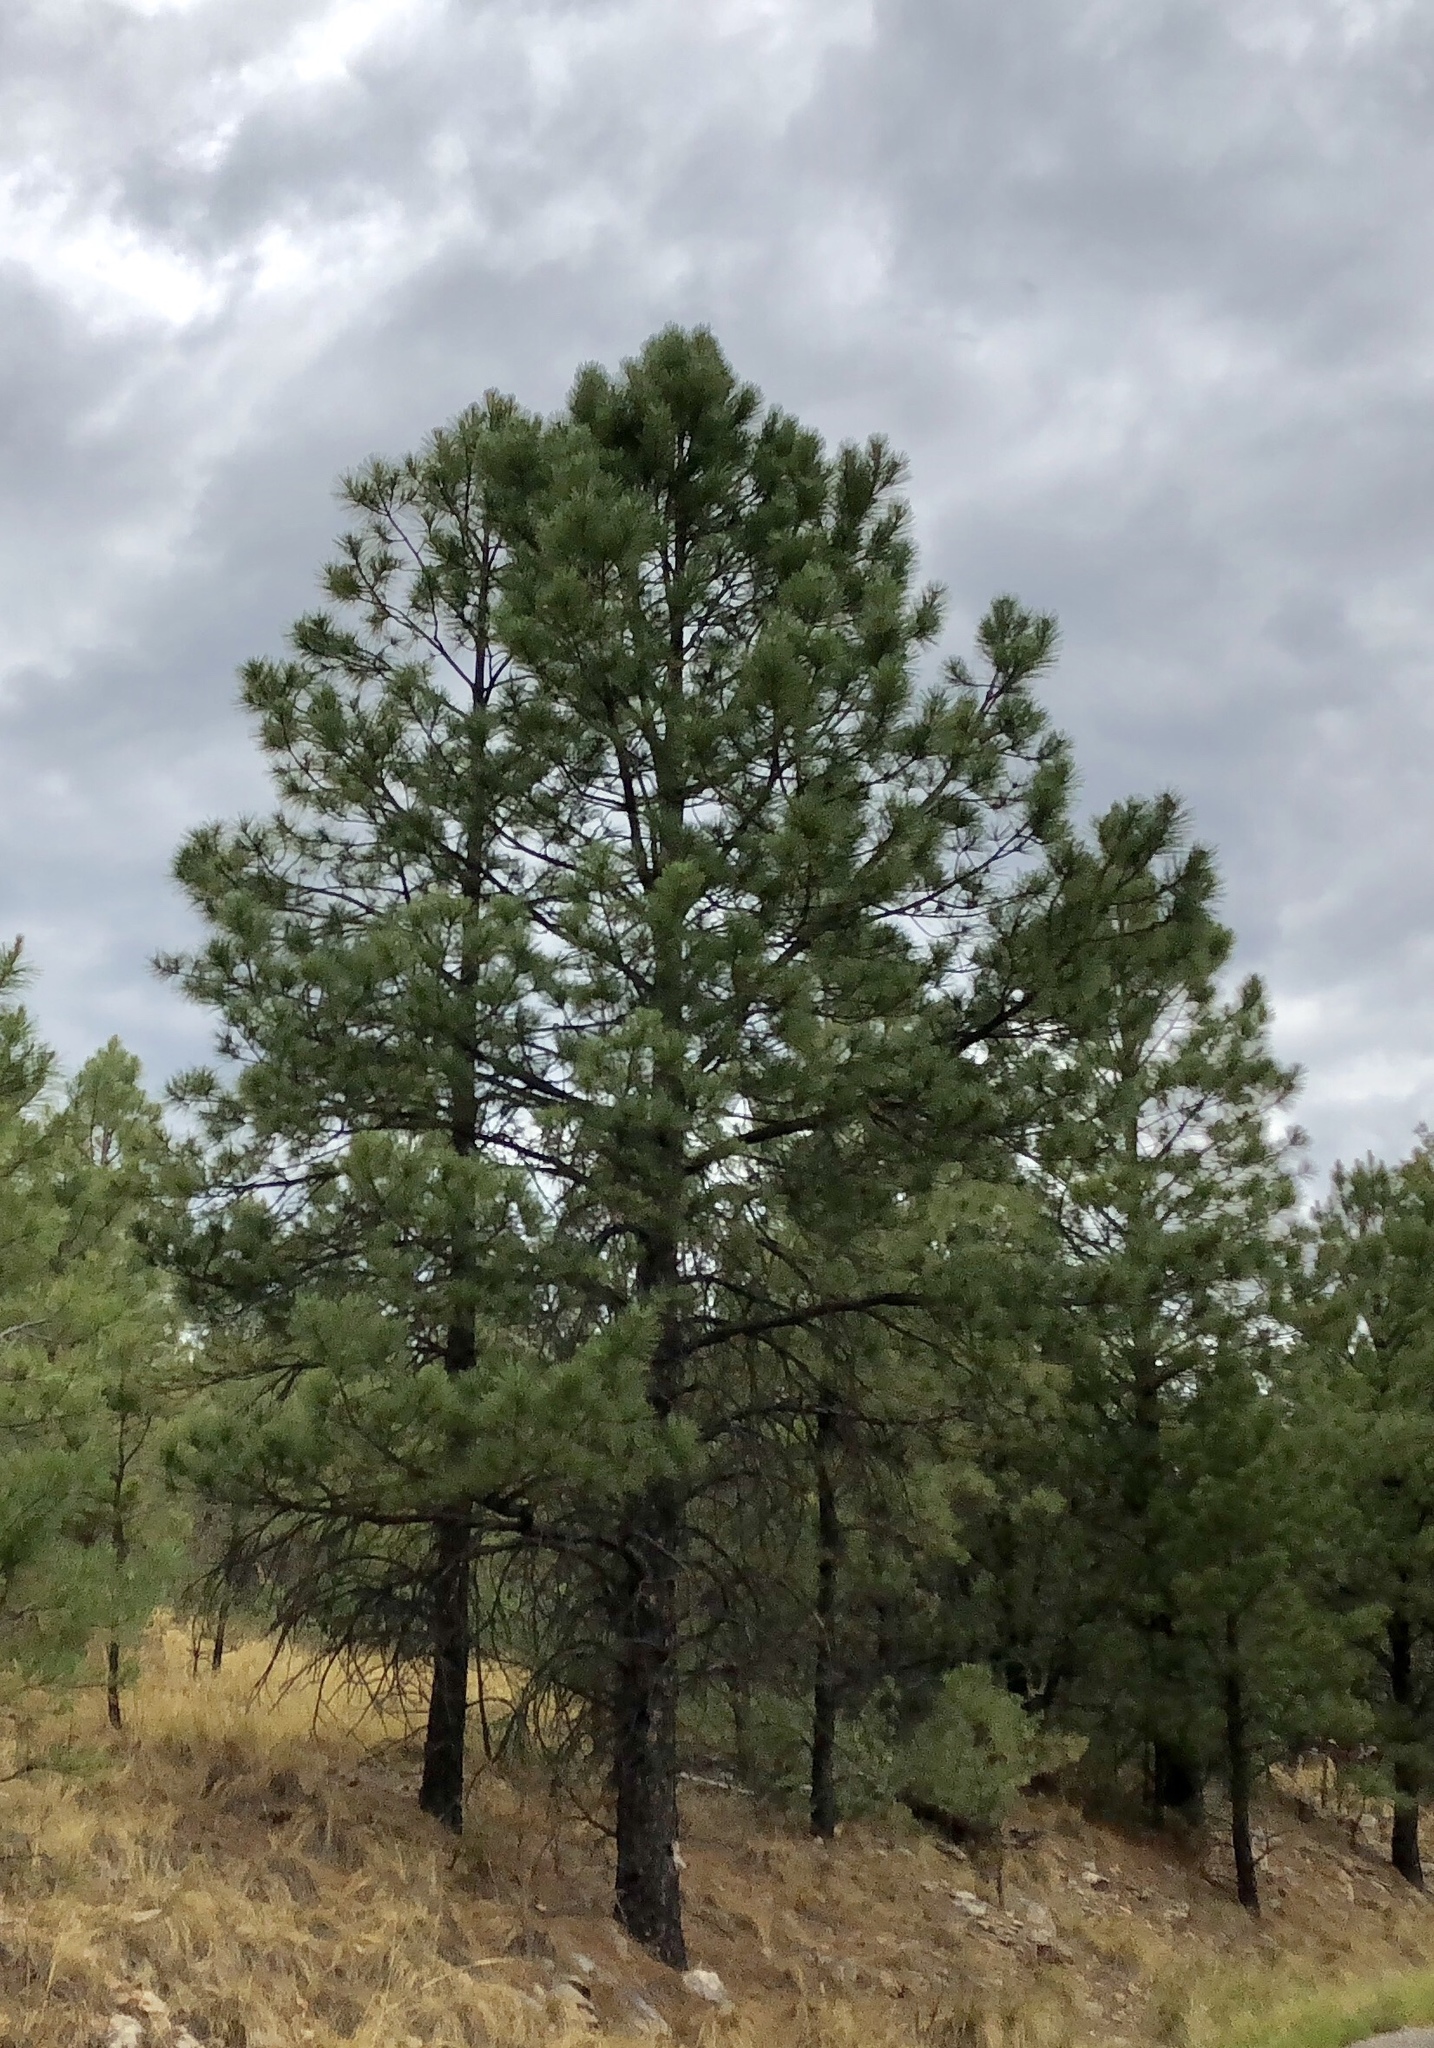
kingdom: Plantae
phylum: Tracheophyta
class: Pinopsida
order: Pinales
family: Pinaceae
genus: Pinus
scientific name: Pinus ponderosa
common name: Western yellow-pine
